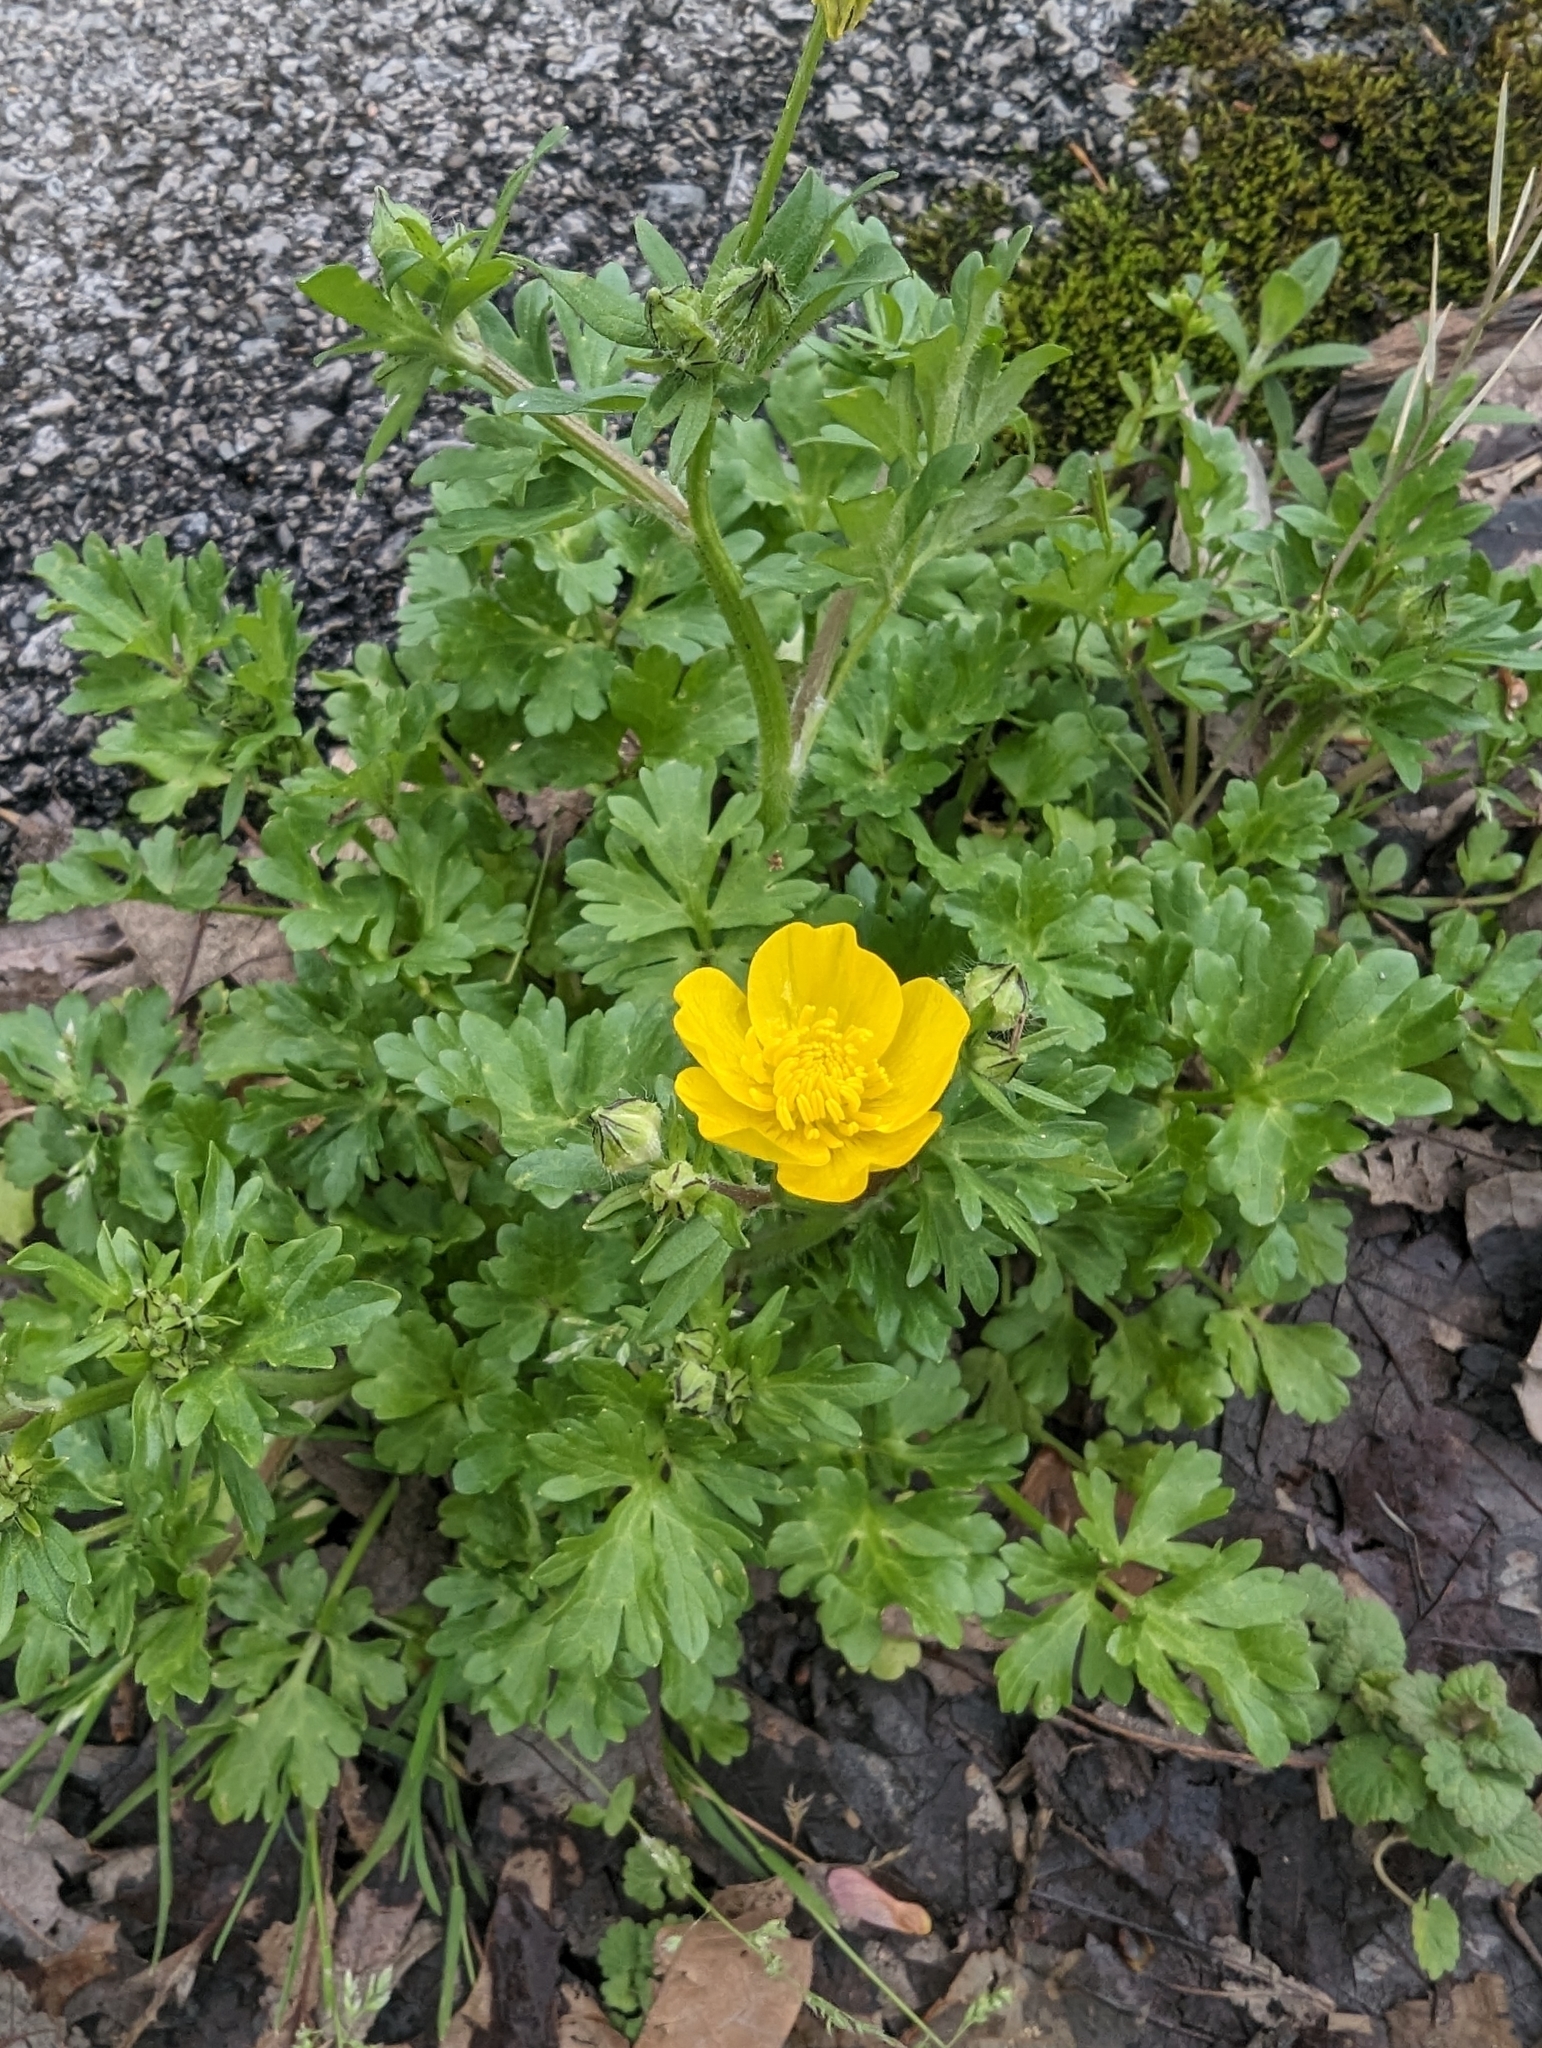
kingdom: Plantae
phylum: Tracheophyta
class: Magnoliopsida
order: Ranunculales
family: Ranunculaceae
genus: Ranunculus
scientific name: Ranunculus sardous
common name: Hairy buttercup
